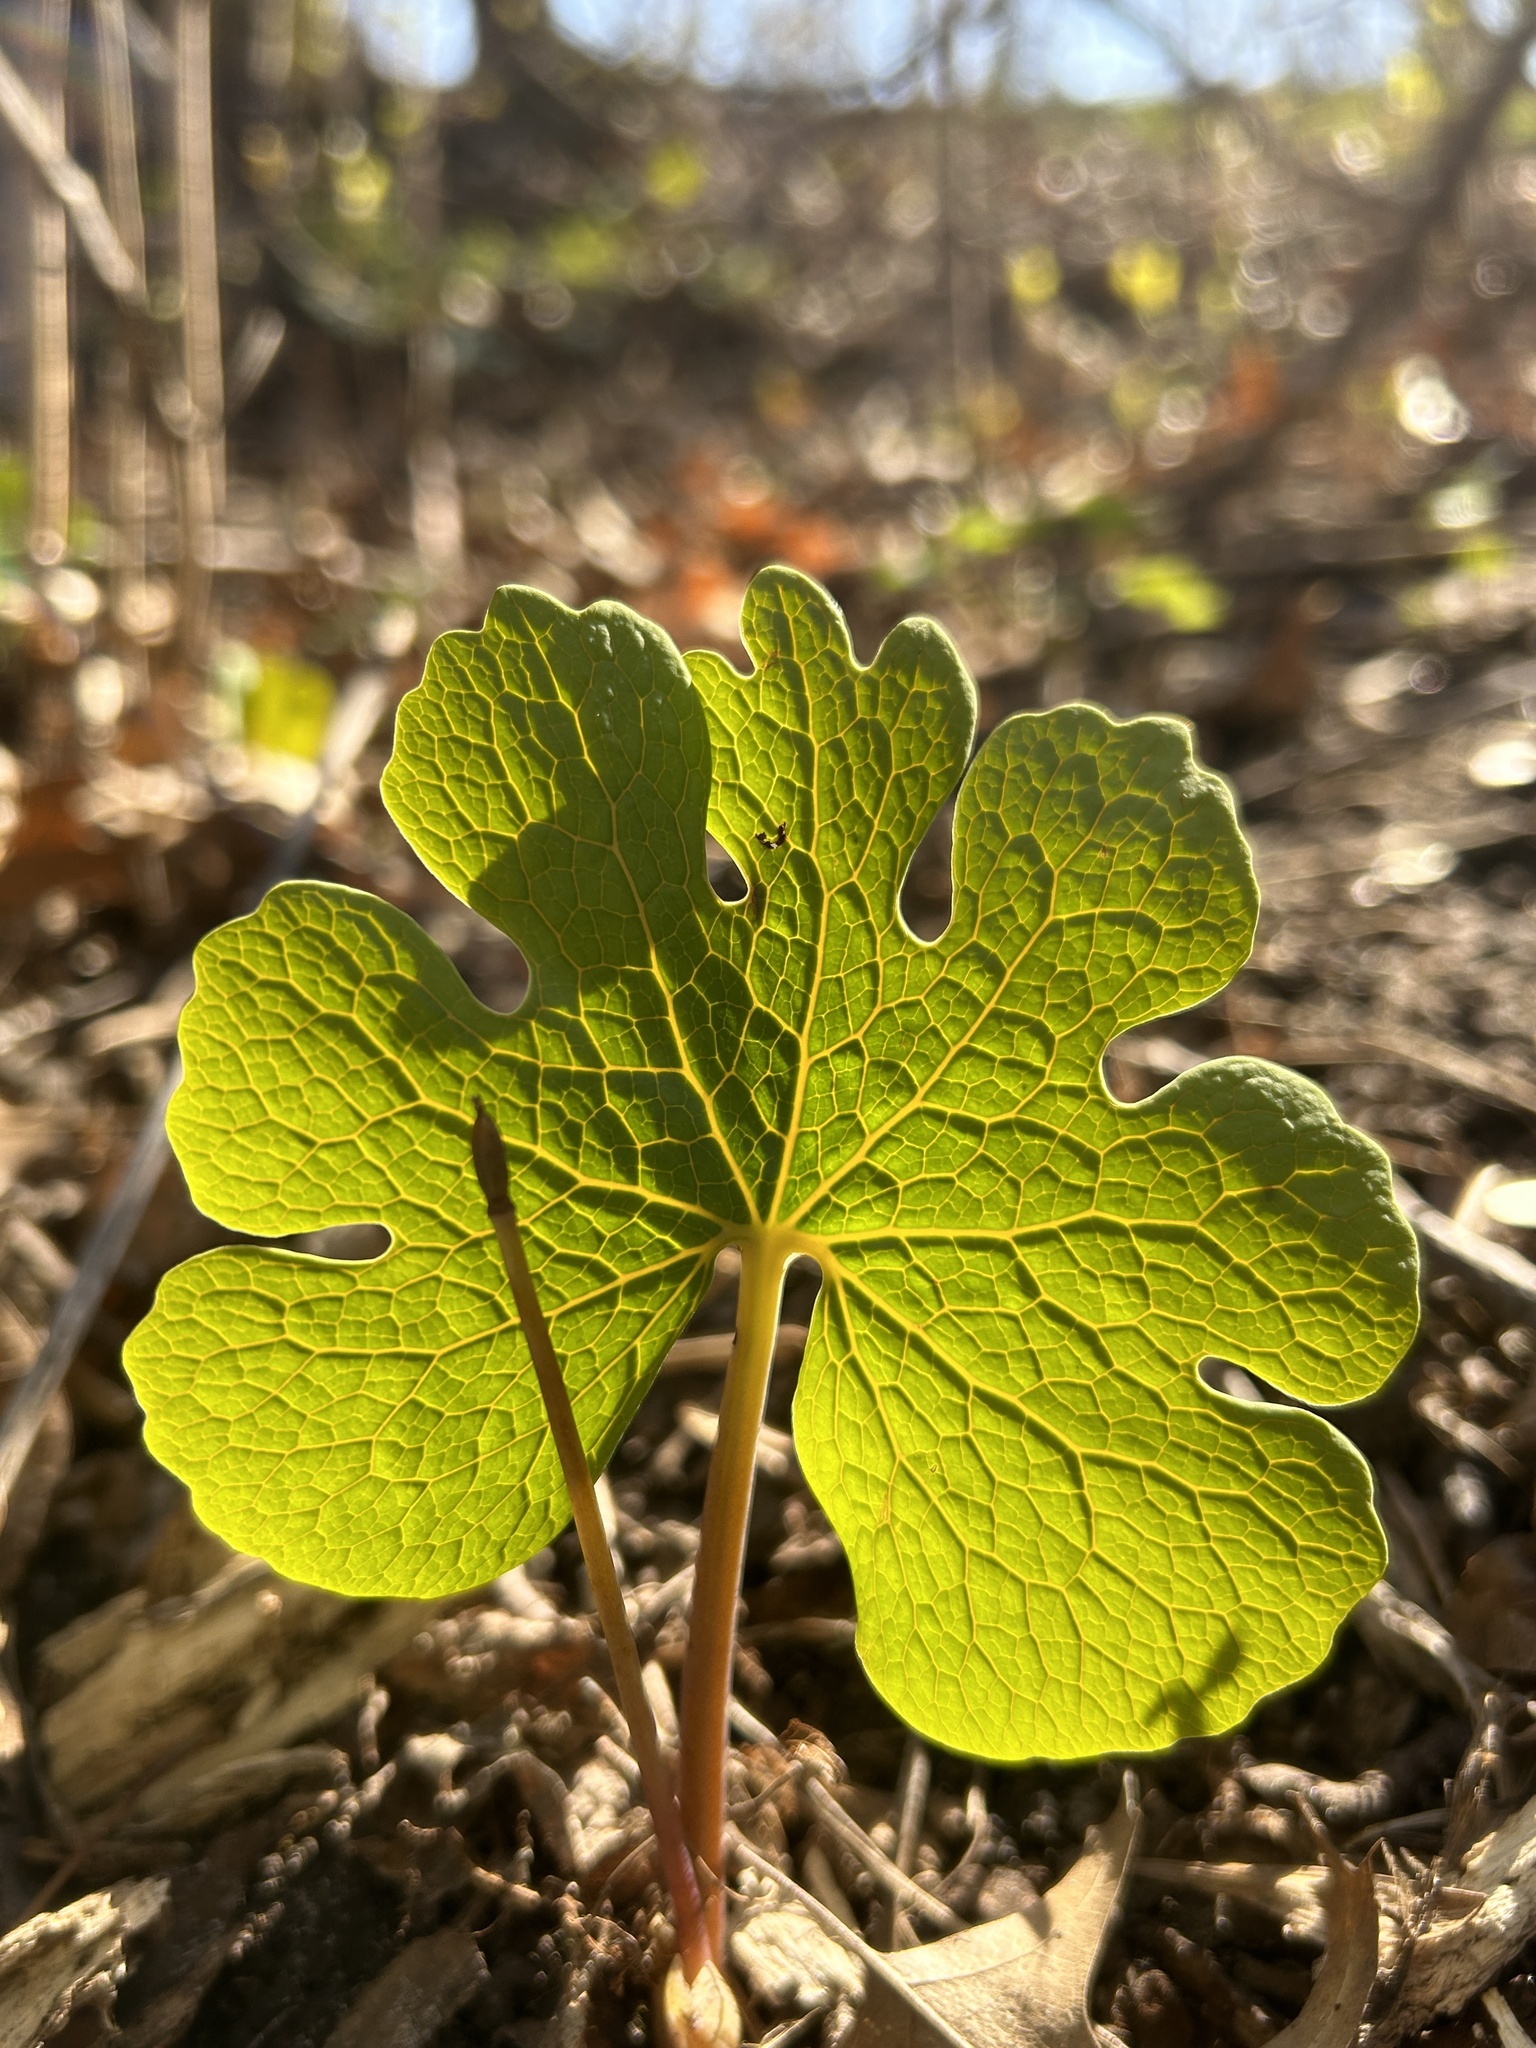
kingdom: Plantae
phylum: Tracheophyta
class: Magnoliopsida
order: Ranunculales
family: Papaveraceae
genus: Sanguinaria
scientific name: Sanguinaria canadensis
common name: Bloodroot
